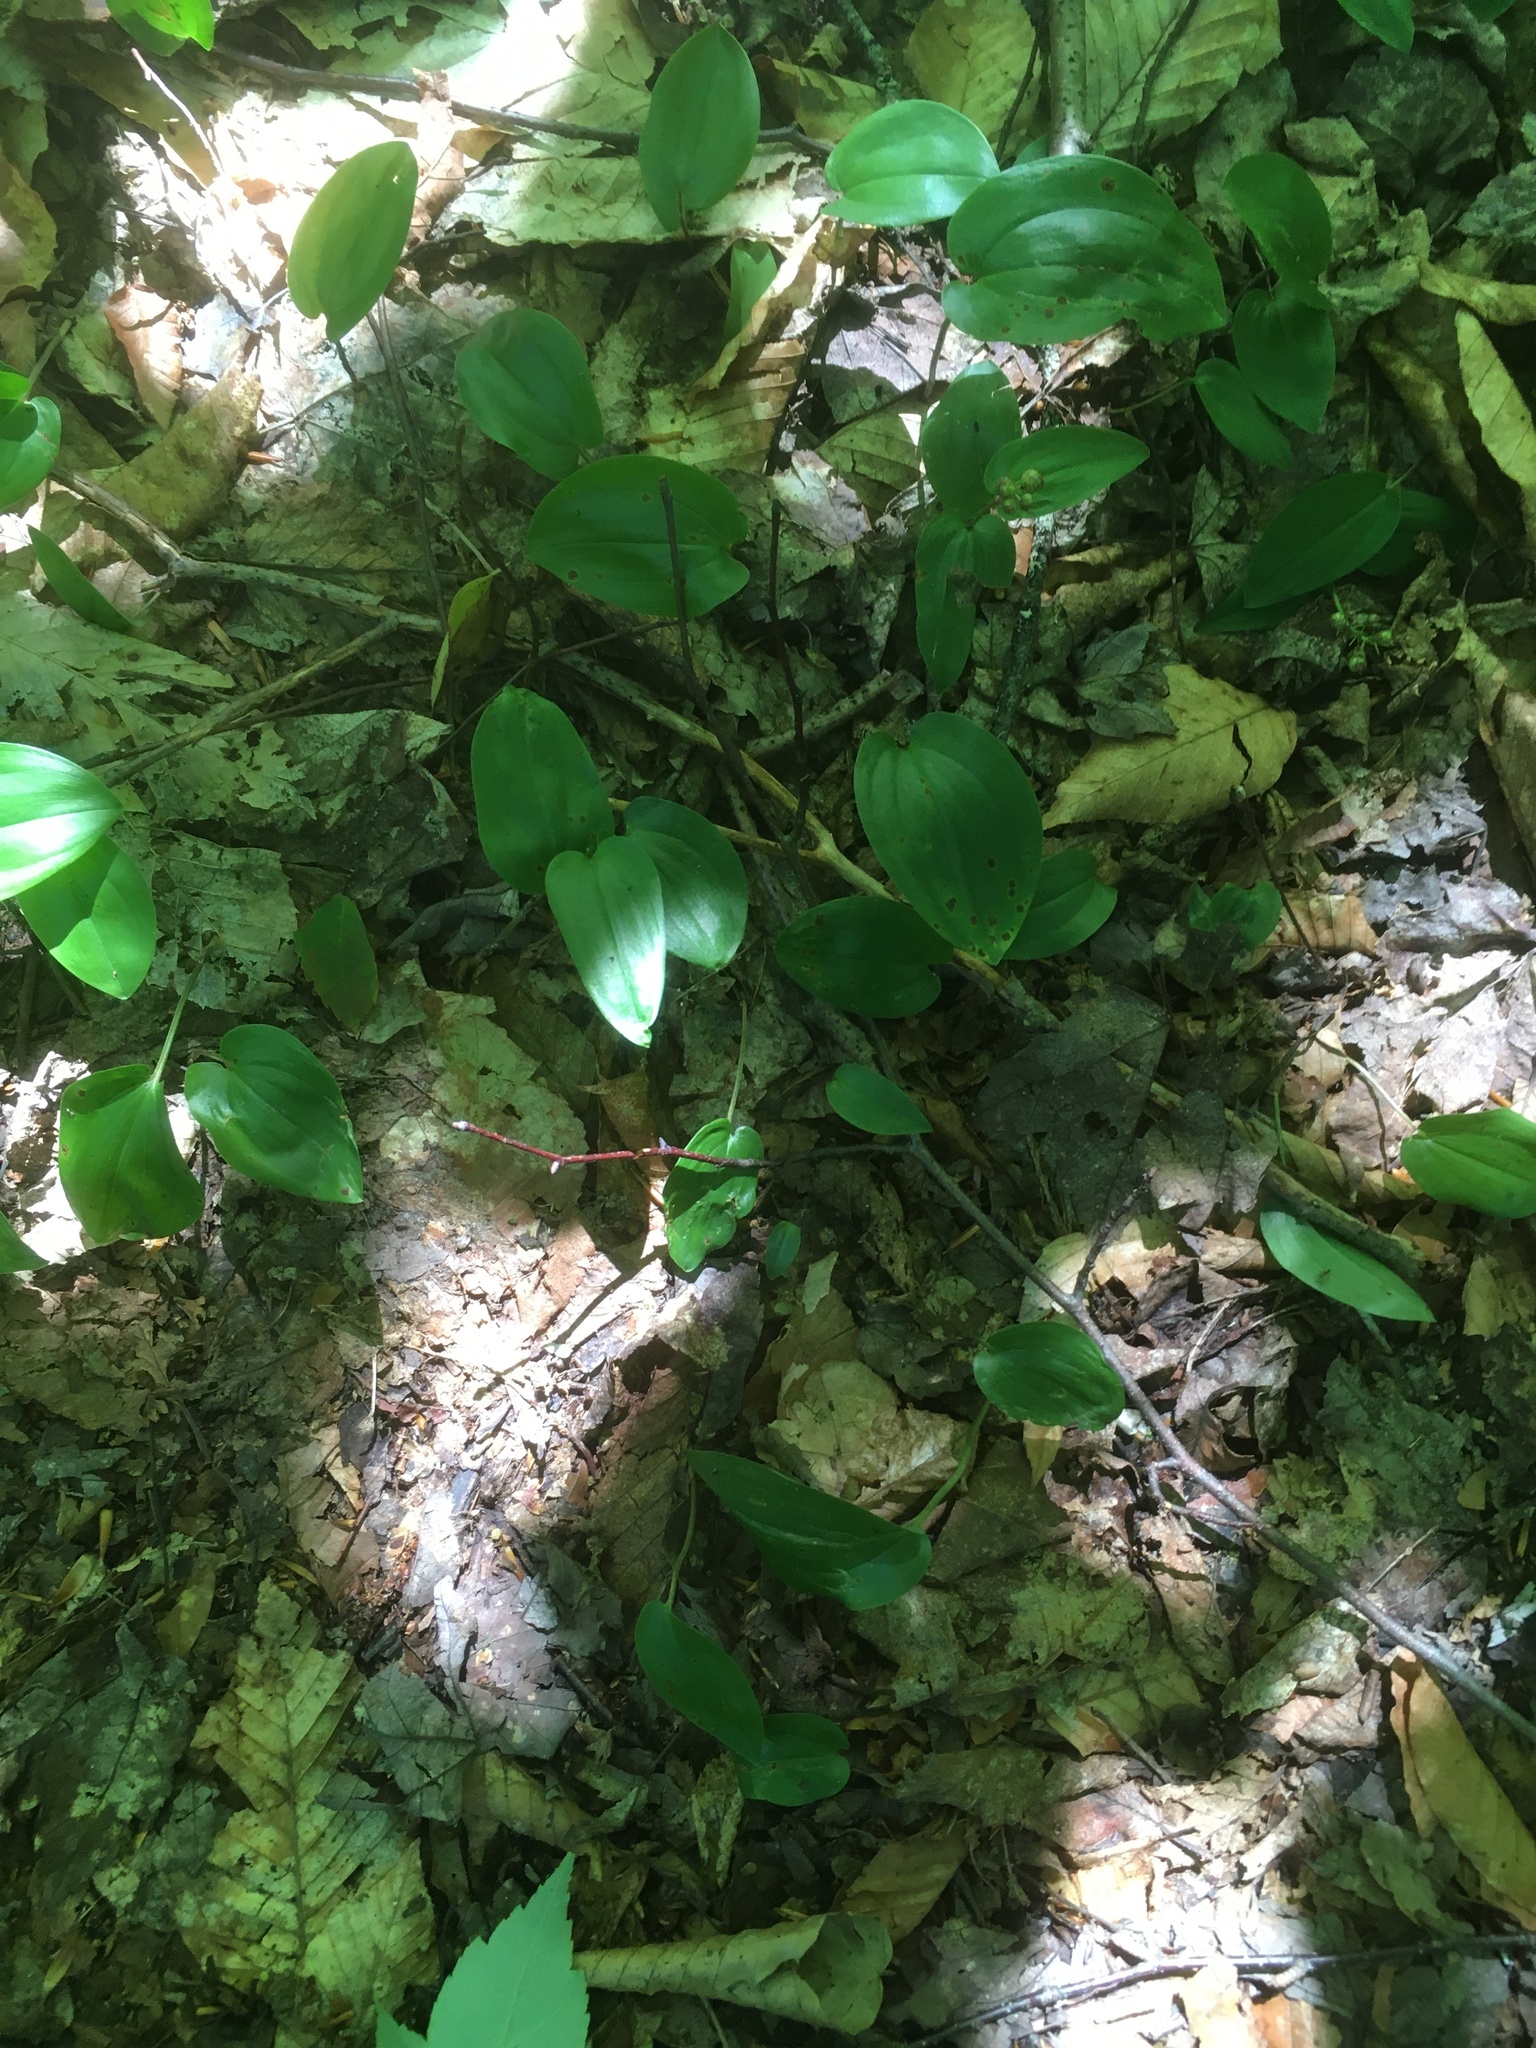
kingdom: Plantae
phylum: Tracheophyta
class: Liliopsida
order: Asparagales
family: Asparagaceae
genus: Maianthemum
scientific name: Maianthemum canadense
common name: False lily-of-the-valley
